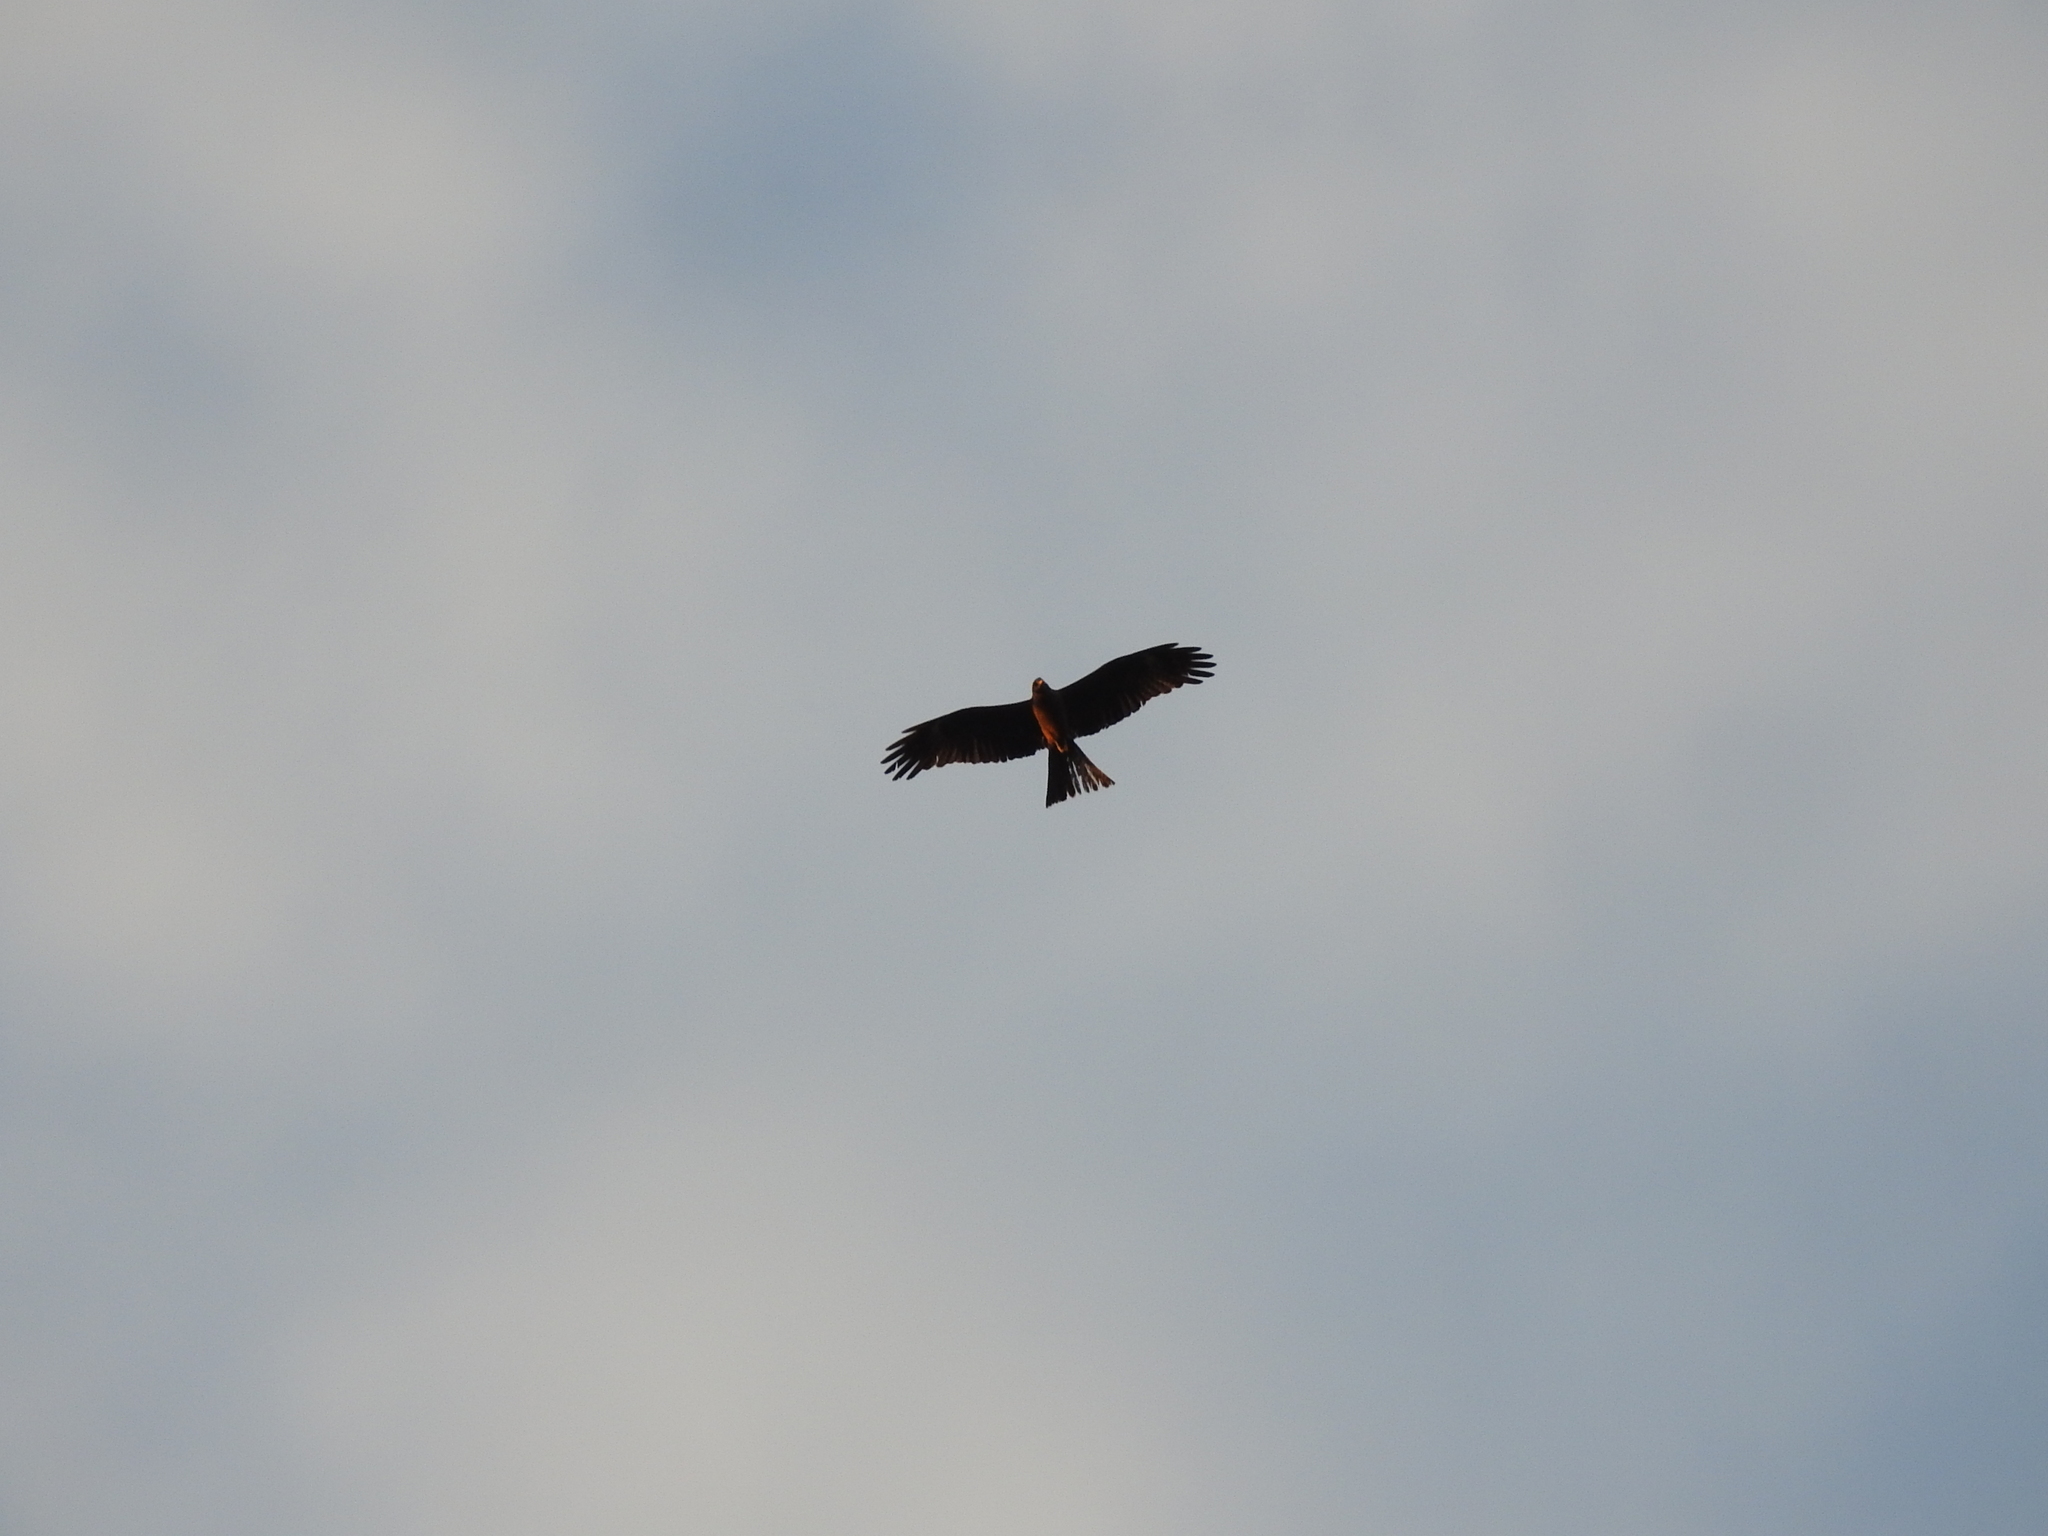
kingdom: Animalia
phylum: Chordata
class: Aves
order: Accipitriformes
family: Accipitridae
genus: Milvus
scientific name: Milvus migrans
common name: Black kite
